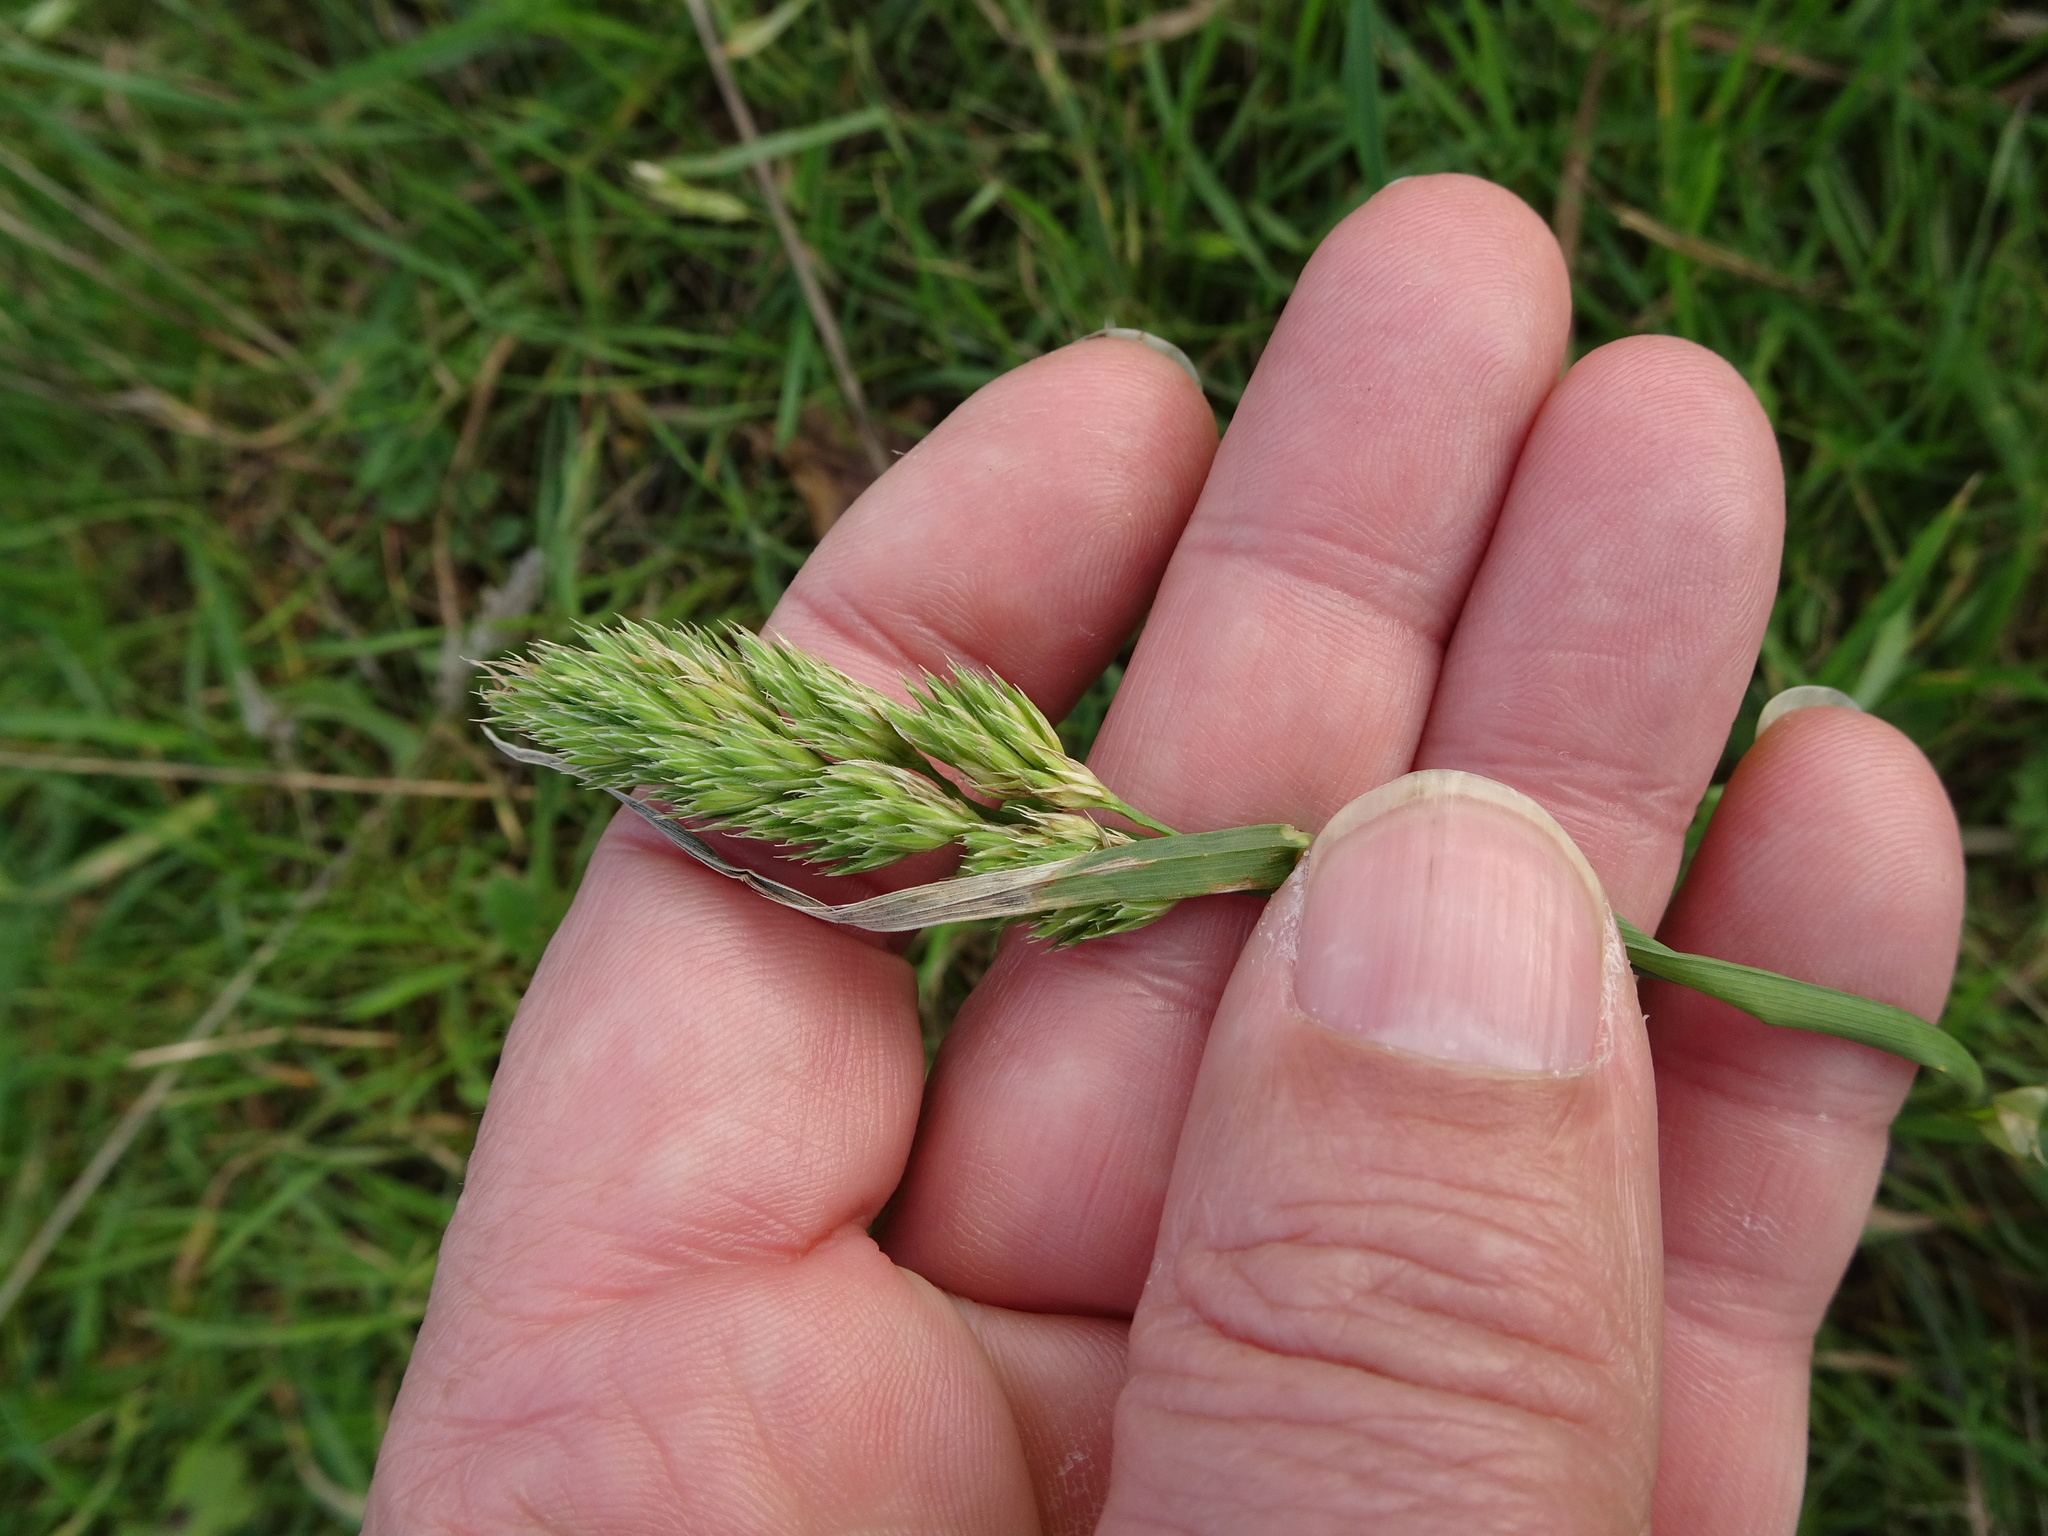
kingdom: Plantae
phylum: Tracheophyta
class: Liliopsida
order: Poales
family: Poaceae
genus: Dactylis
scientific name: Dactylis glomerata
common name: Orchardgrass
